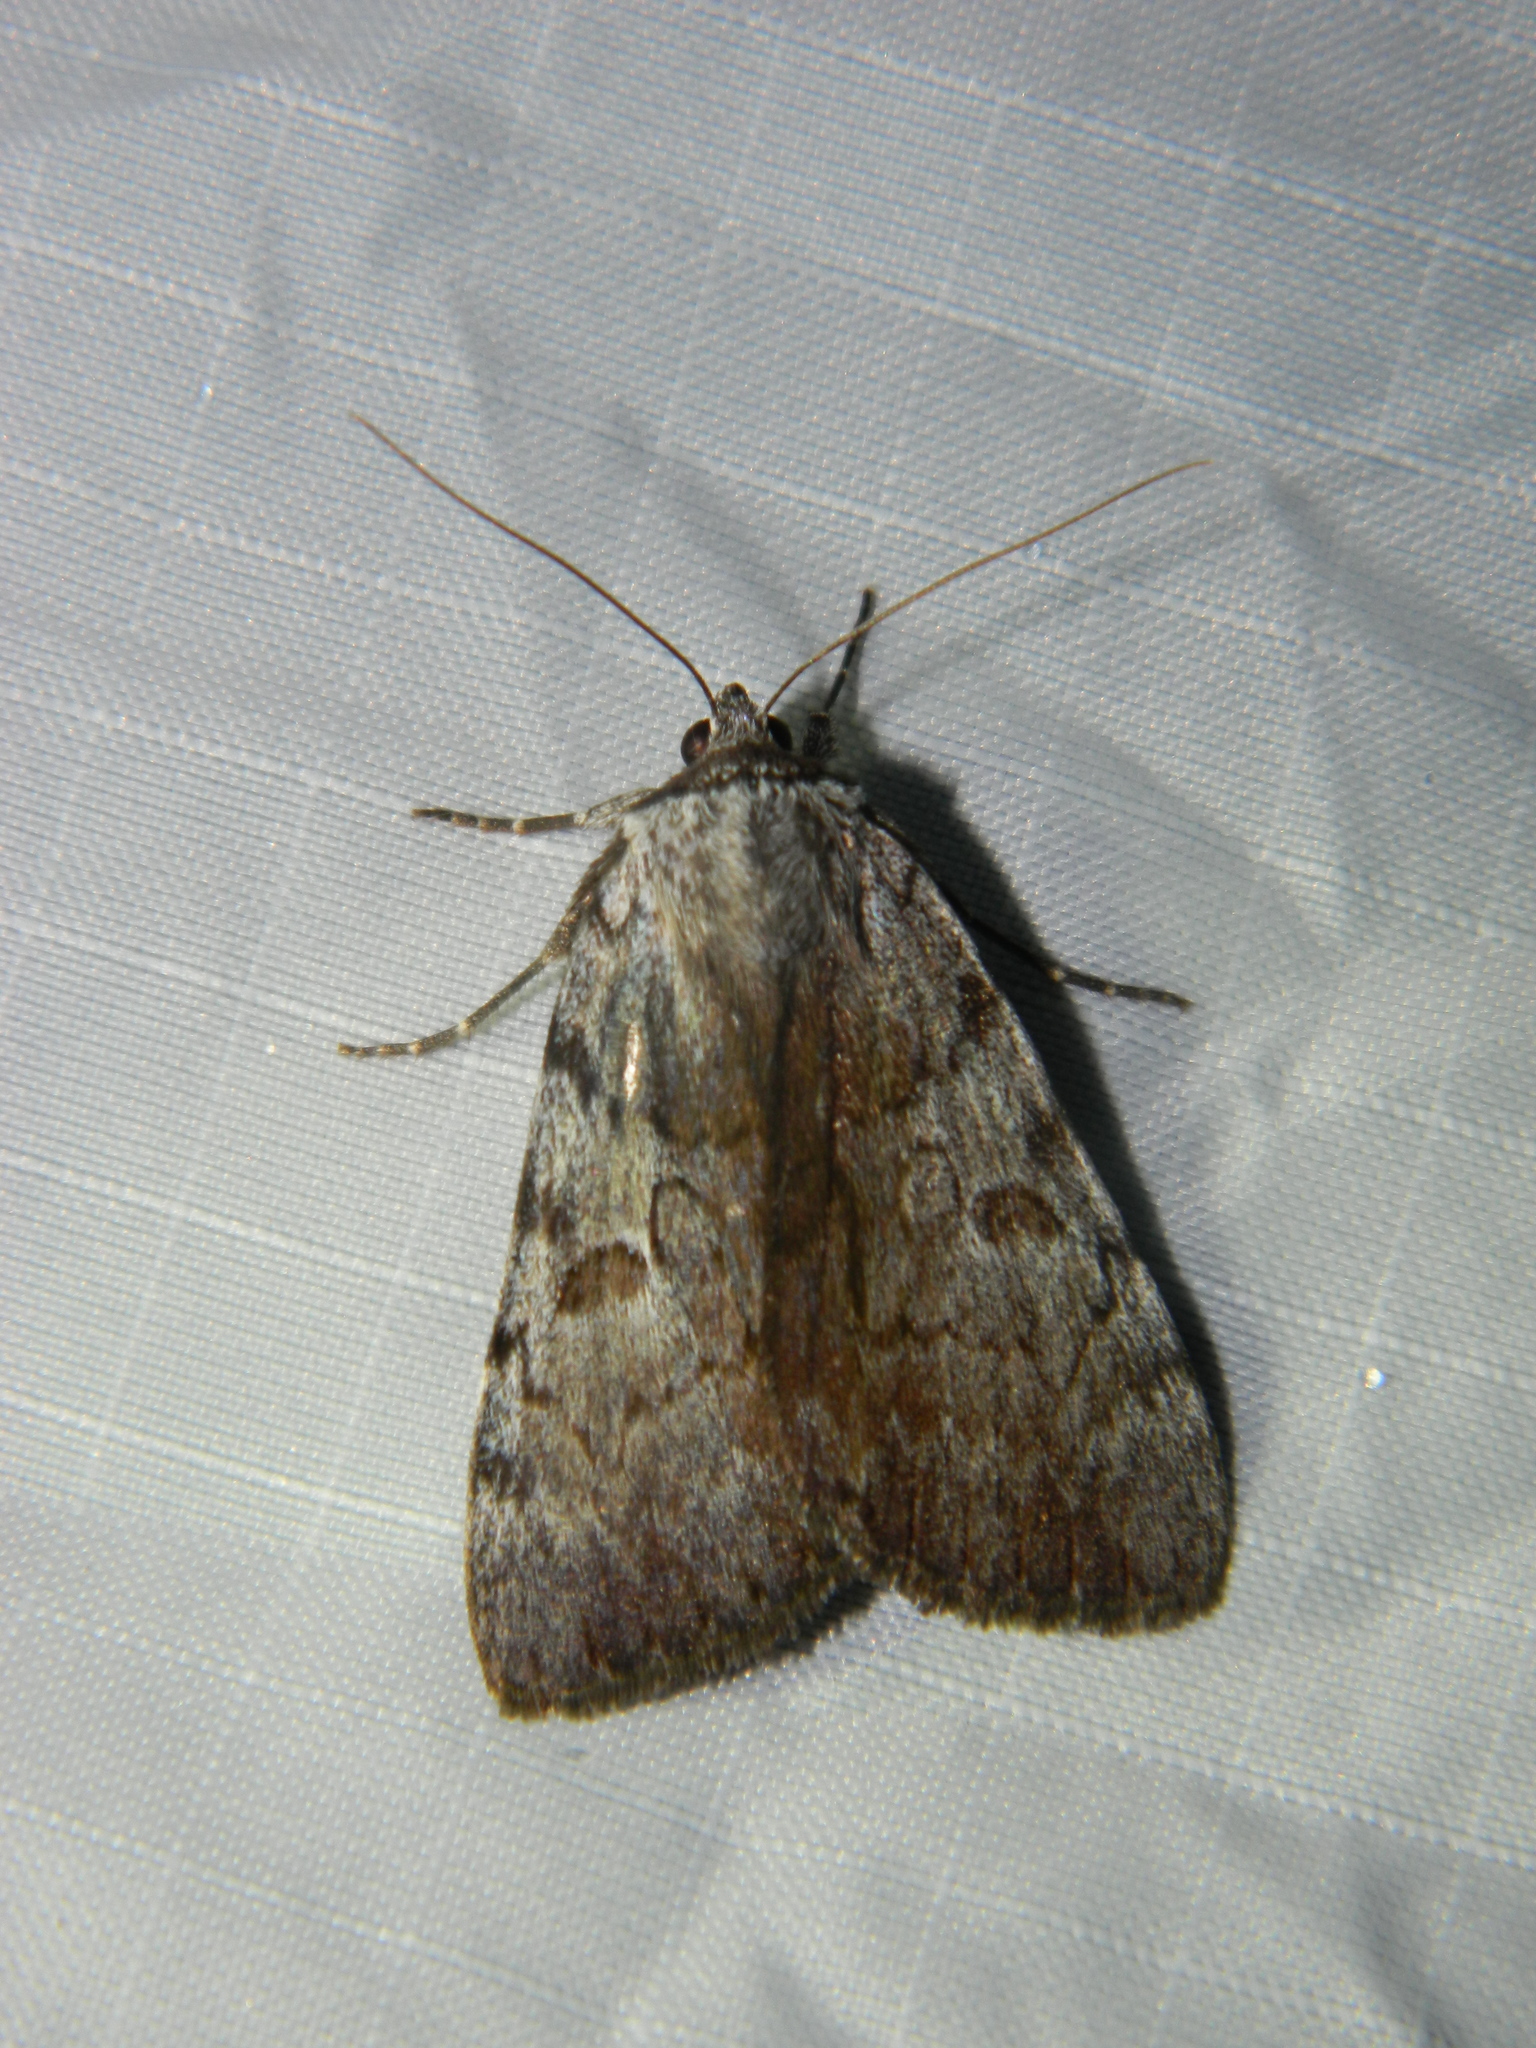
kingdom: Animalia
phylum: Arthropoda
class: Insecta
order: Lepidoptera
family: Erebidae
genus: Catocala
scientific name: Catocala sordida
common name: Sordid underwing
